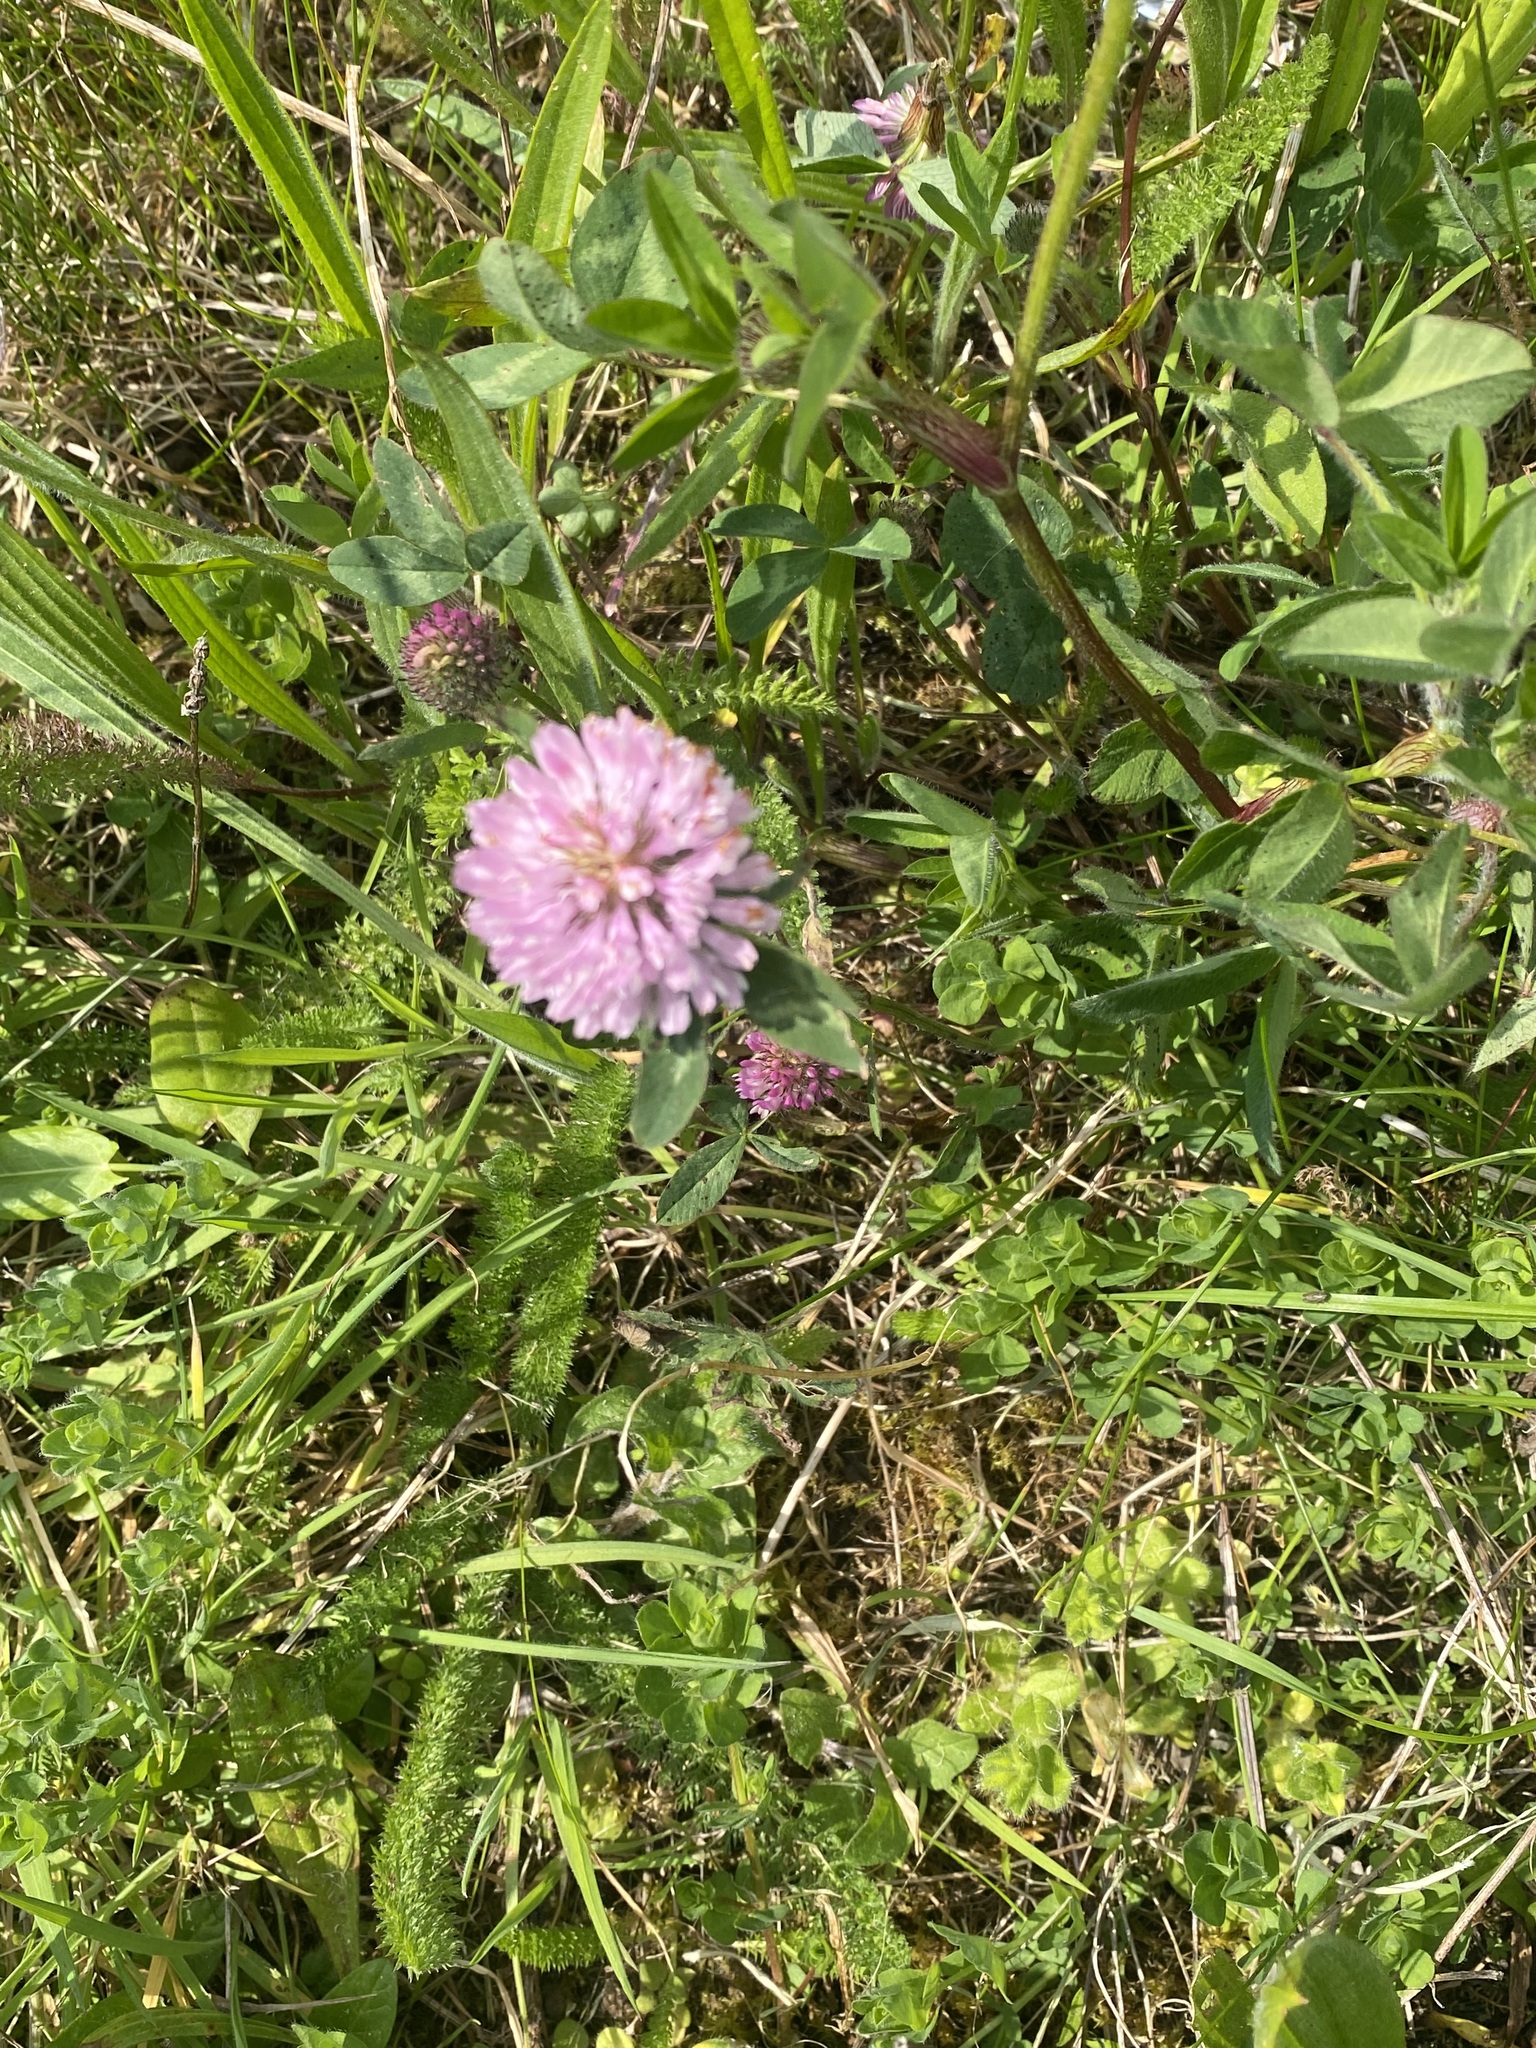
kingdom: Plantae
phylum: Tracheophyta
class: Magnoliopsida
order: Fabales
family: Fabaceae
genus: Trifolium
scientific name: Trifolium pratense
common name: Red clover
